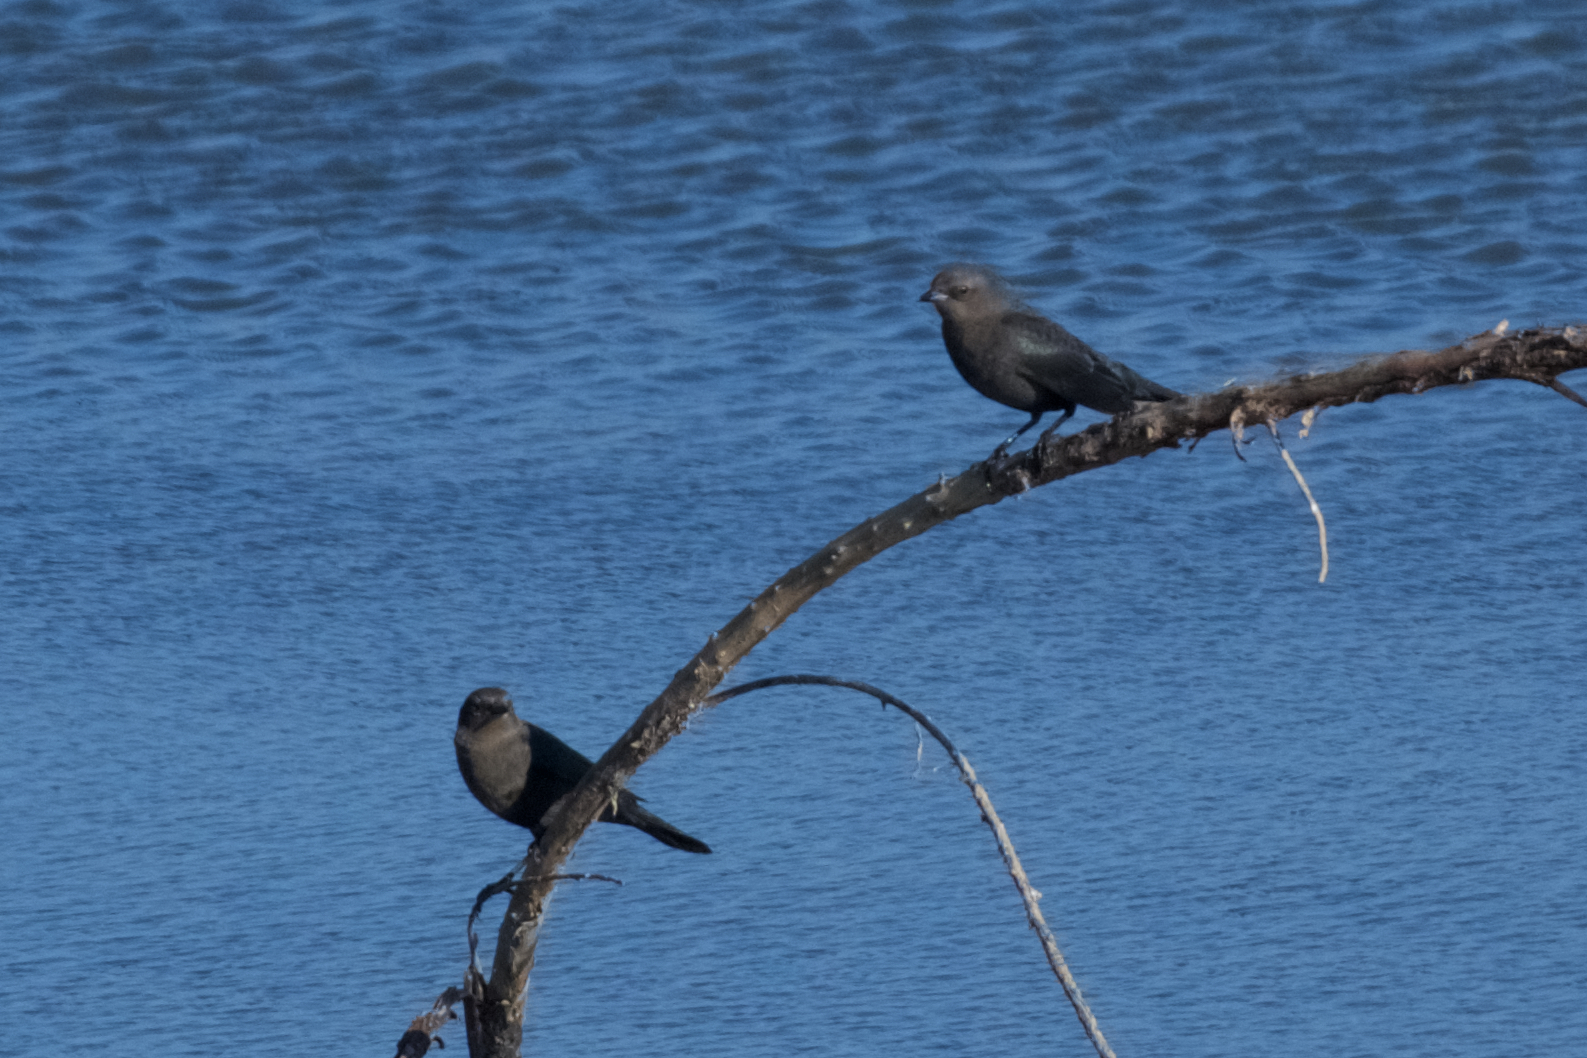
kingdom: Animalia
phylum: Chordata
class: Aves
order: Passeriformes
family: Icteridae
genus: Euphagus
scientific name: Euphagus cyanocephalus
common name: Brewer's blackbird
